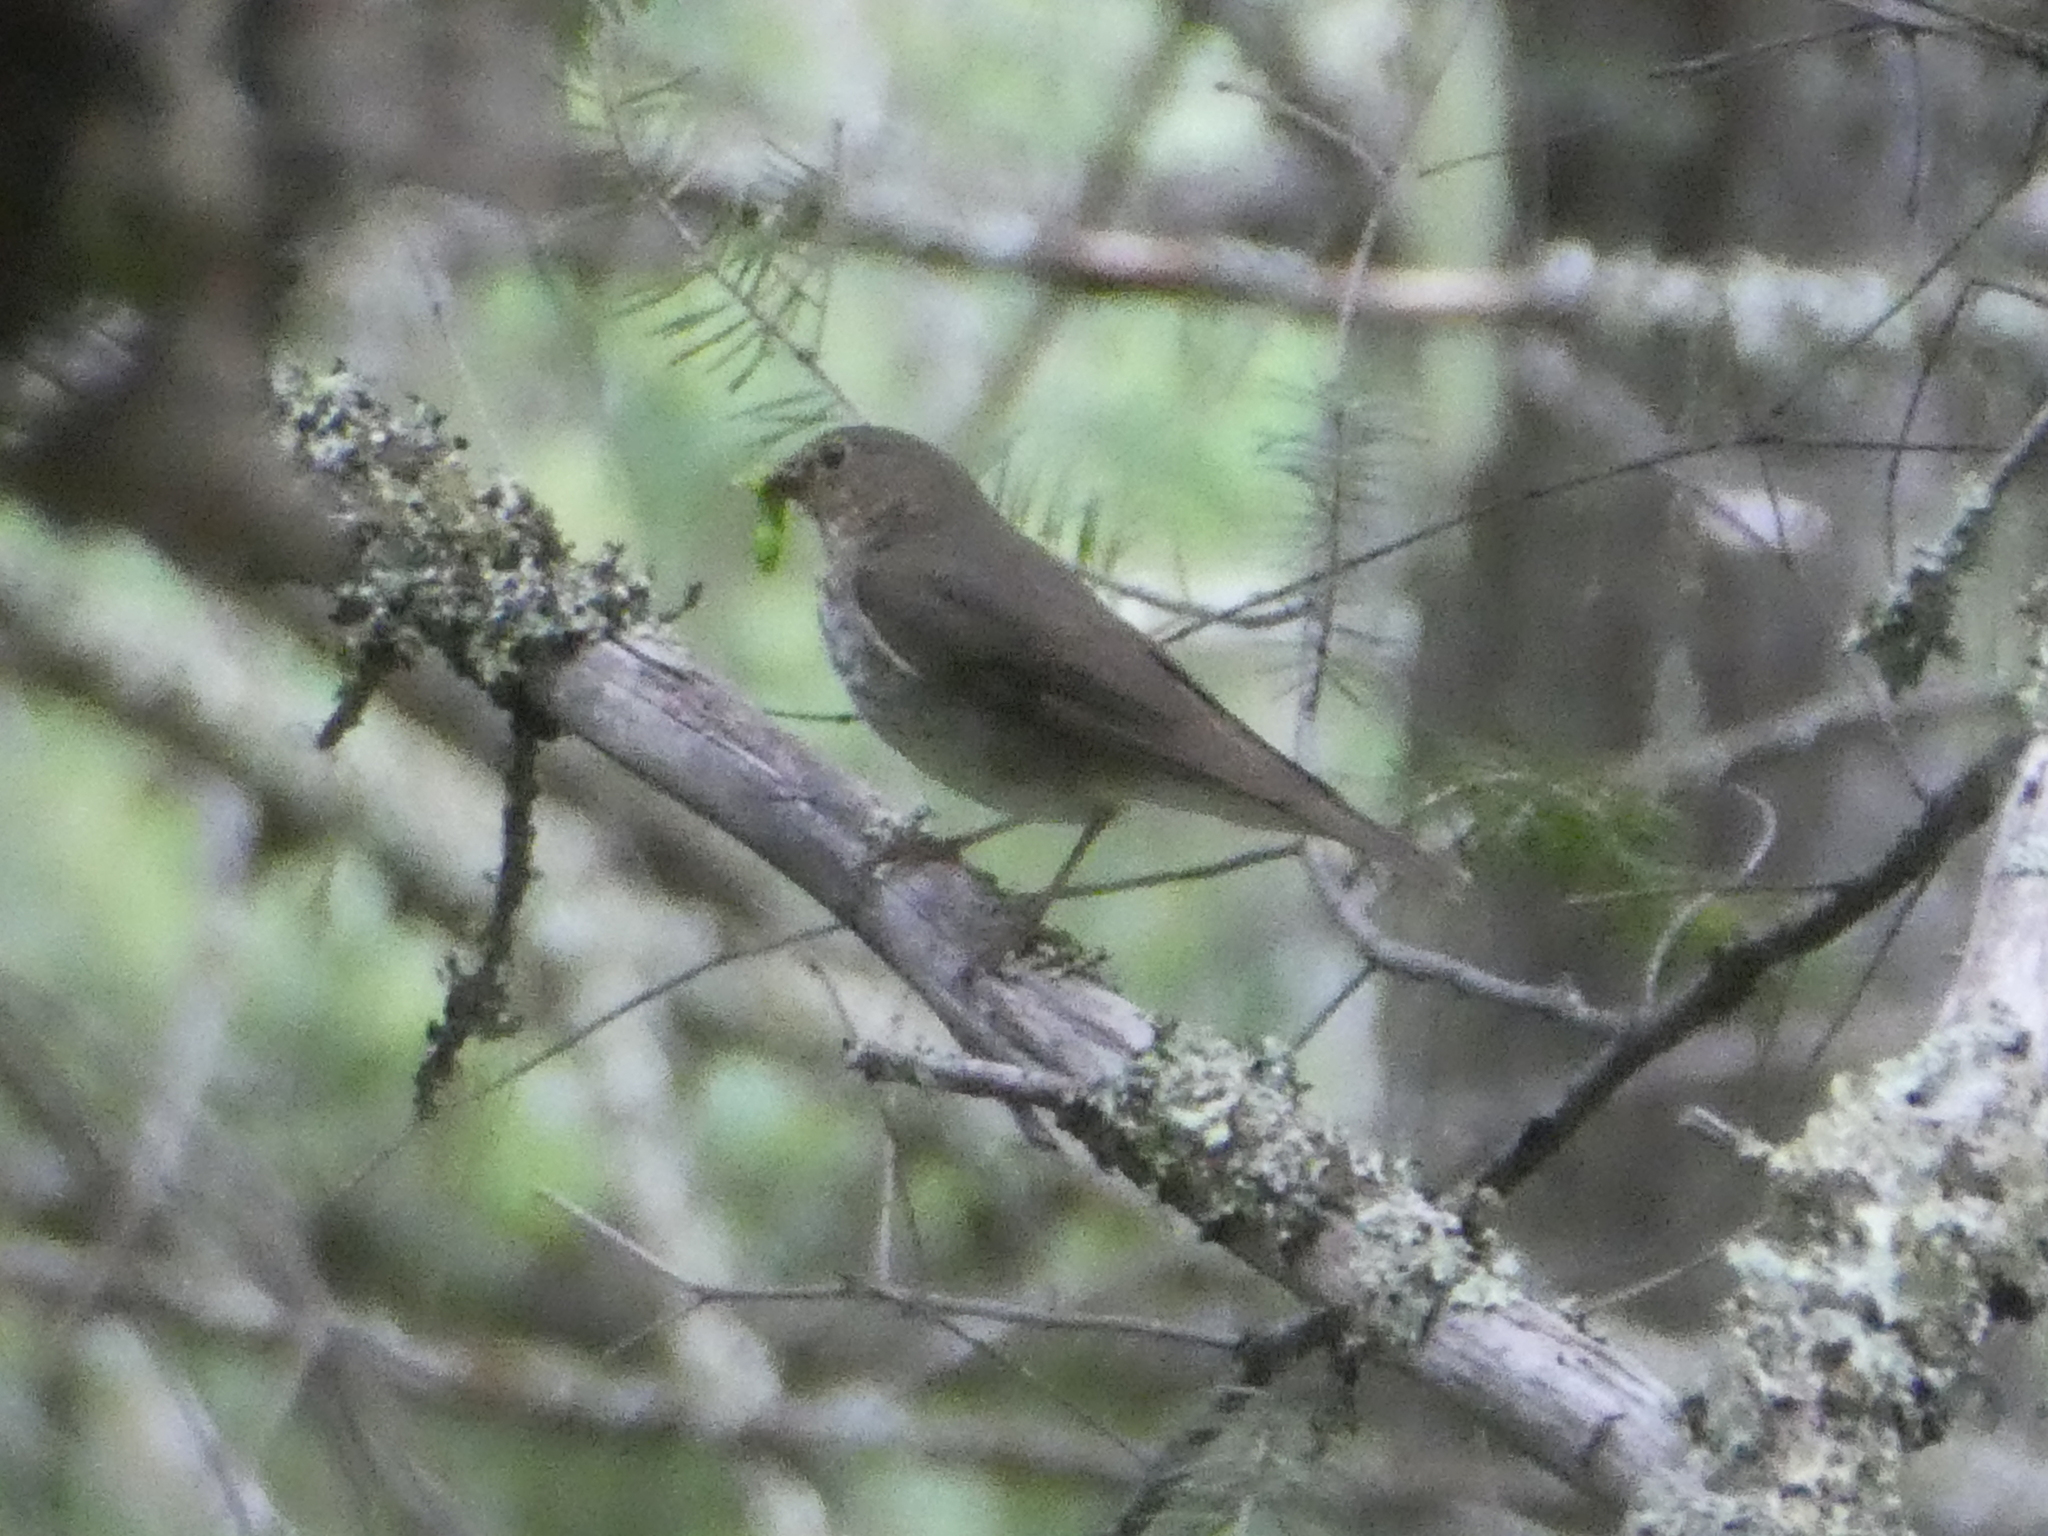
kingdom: Animalia
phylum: Chordata
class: Aves
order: Passeriformes
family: Turdidae
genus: Catharus
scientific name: Catharus ustulatus
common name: Swainson's thrush
